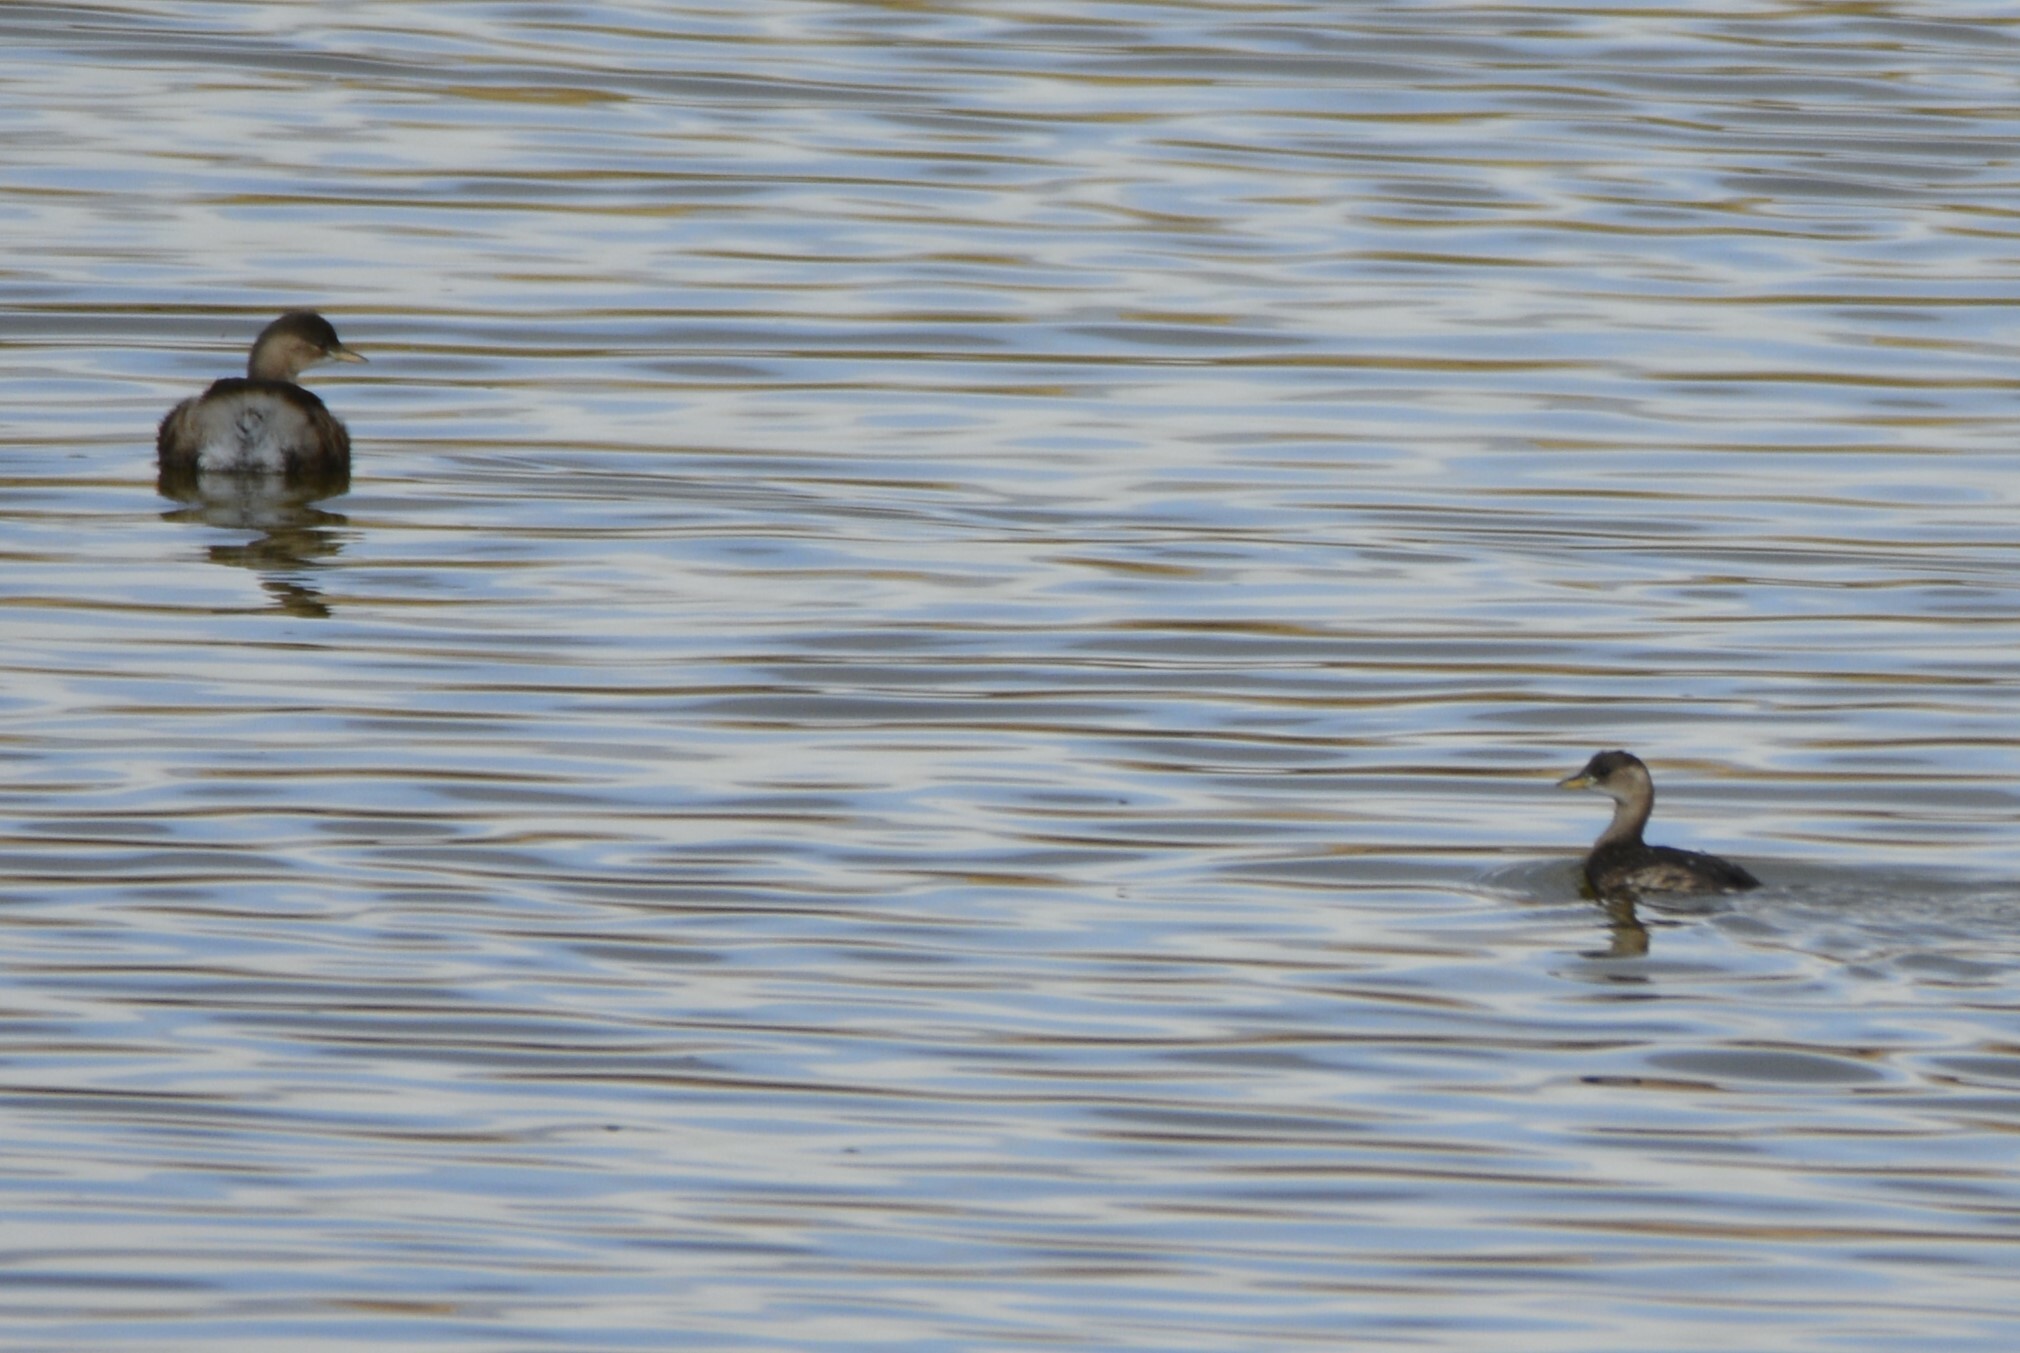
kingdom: Animalia
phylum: Chordata
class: Aves
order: Podicipediformes
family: Podicipedidae
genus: Tachybaptus
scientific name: Tachybaptus ruficollis
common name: Little grebe
